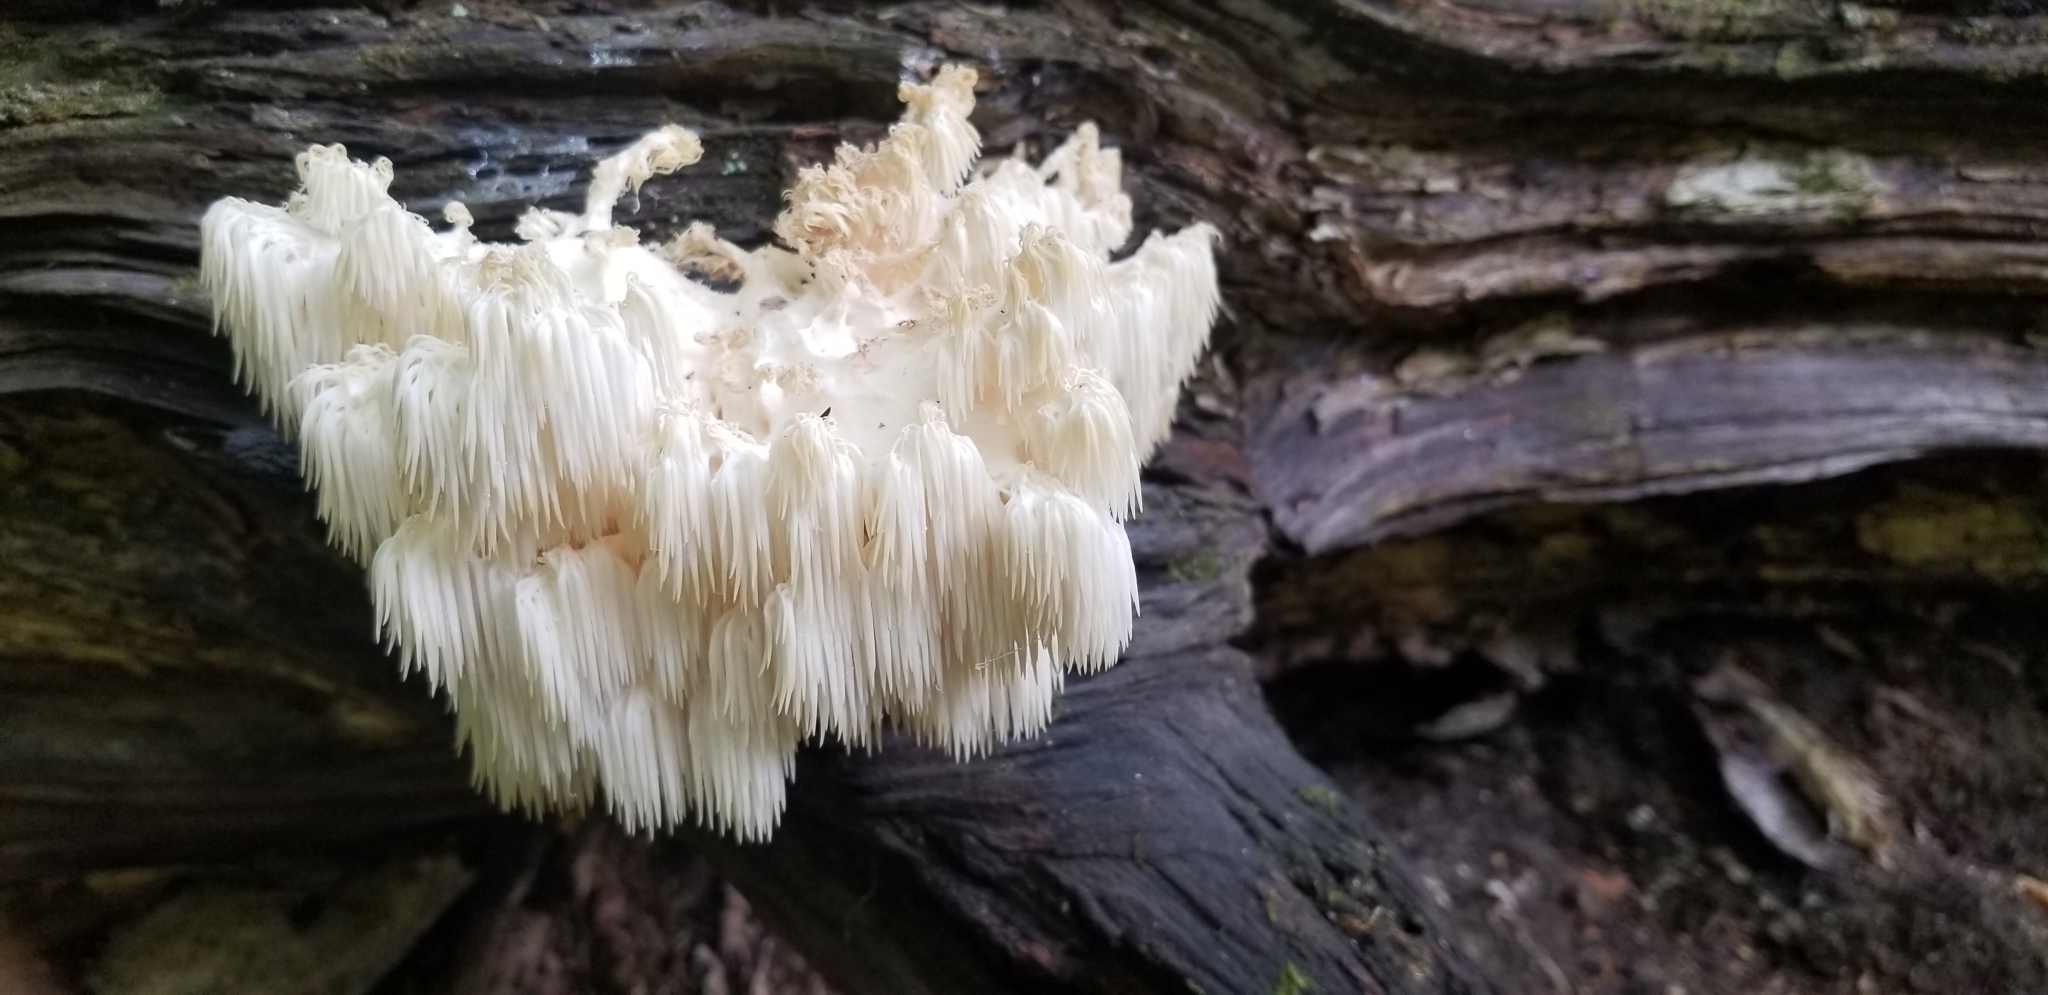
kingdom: Fungi
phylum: Basidiomycota
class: Agaricomycetes
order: Russulales
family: Hericiaceae
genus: Hericium
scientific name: Hericium americanum
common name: Bear's head tooth
